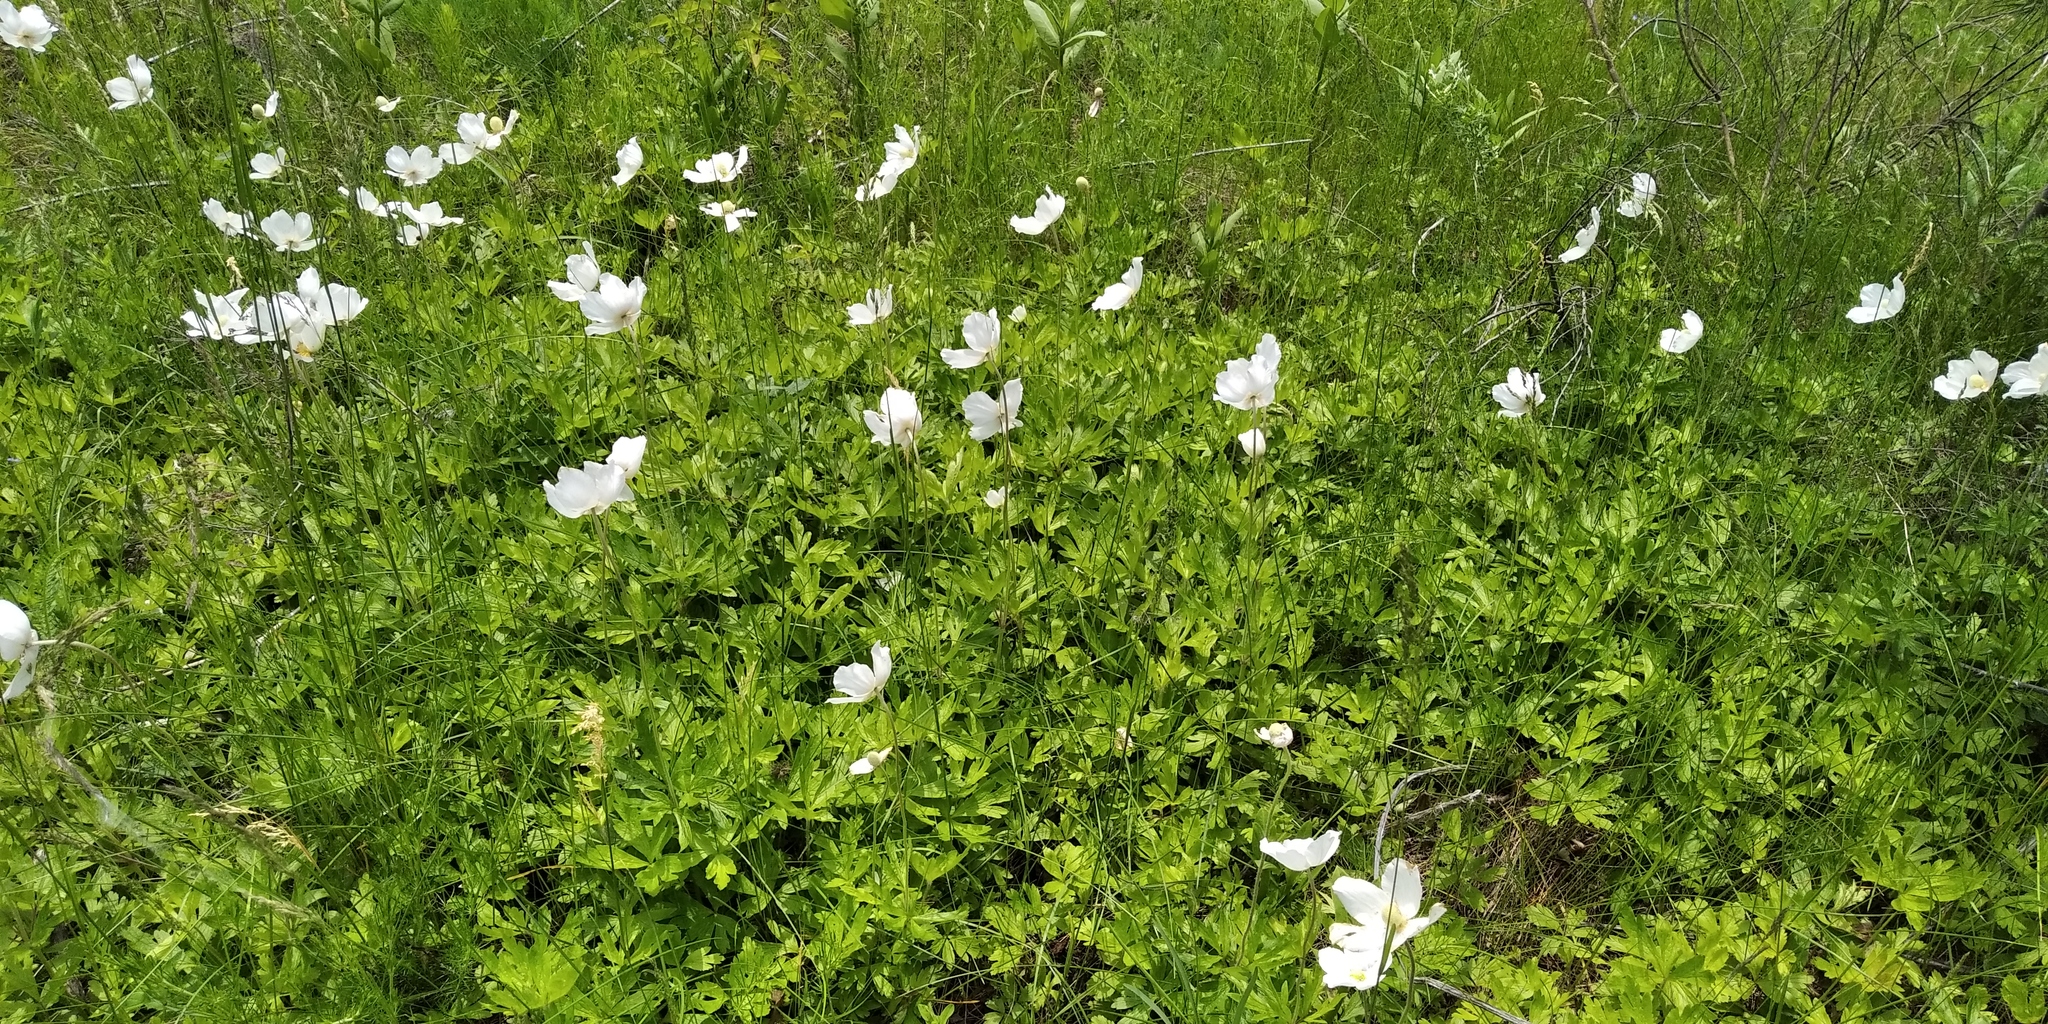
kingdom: Plantae
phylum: Tracheophyta
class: Magnoliopsida
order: Ranunculales
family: Ranunculaceae
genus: Anemone
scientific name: Anemone sylvestris
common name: Snowdrop anemone
